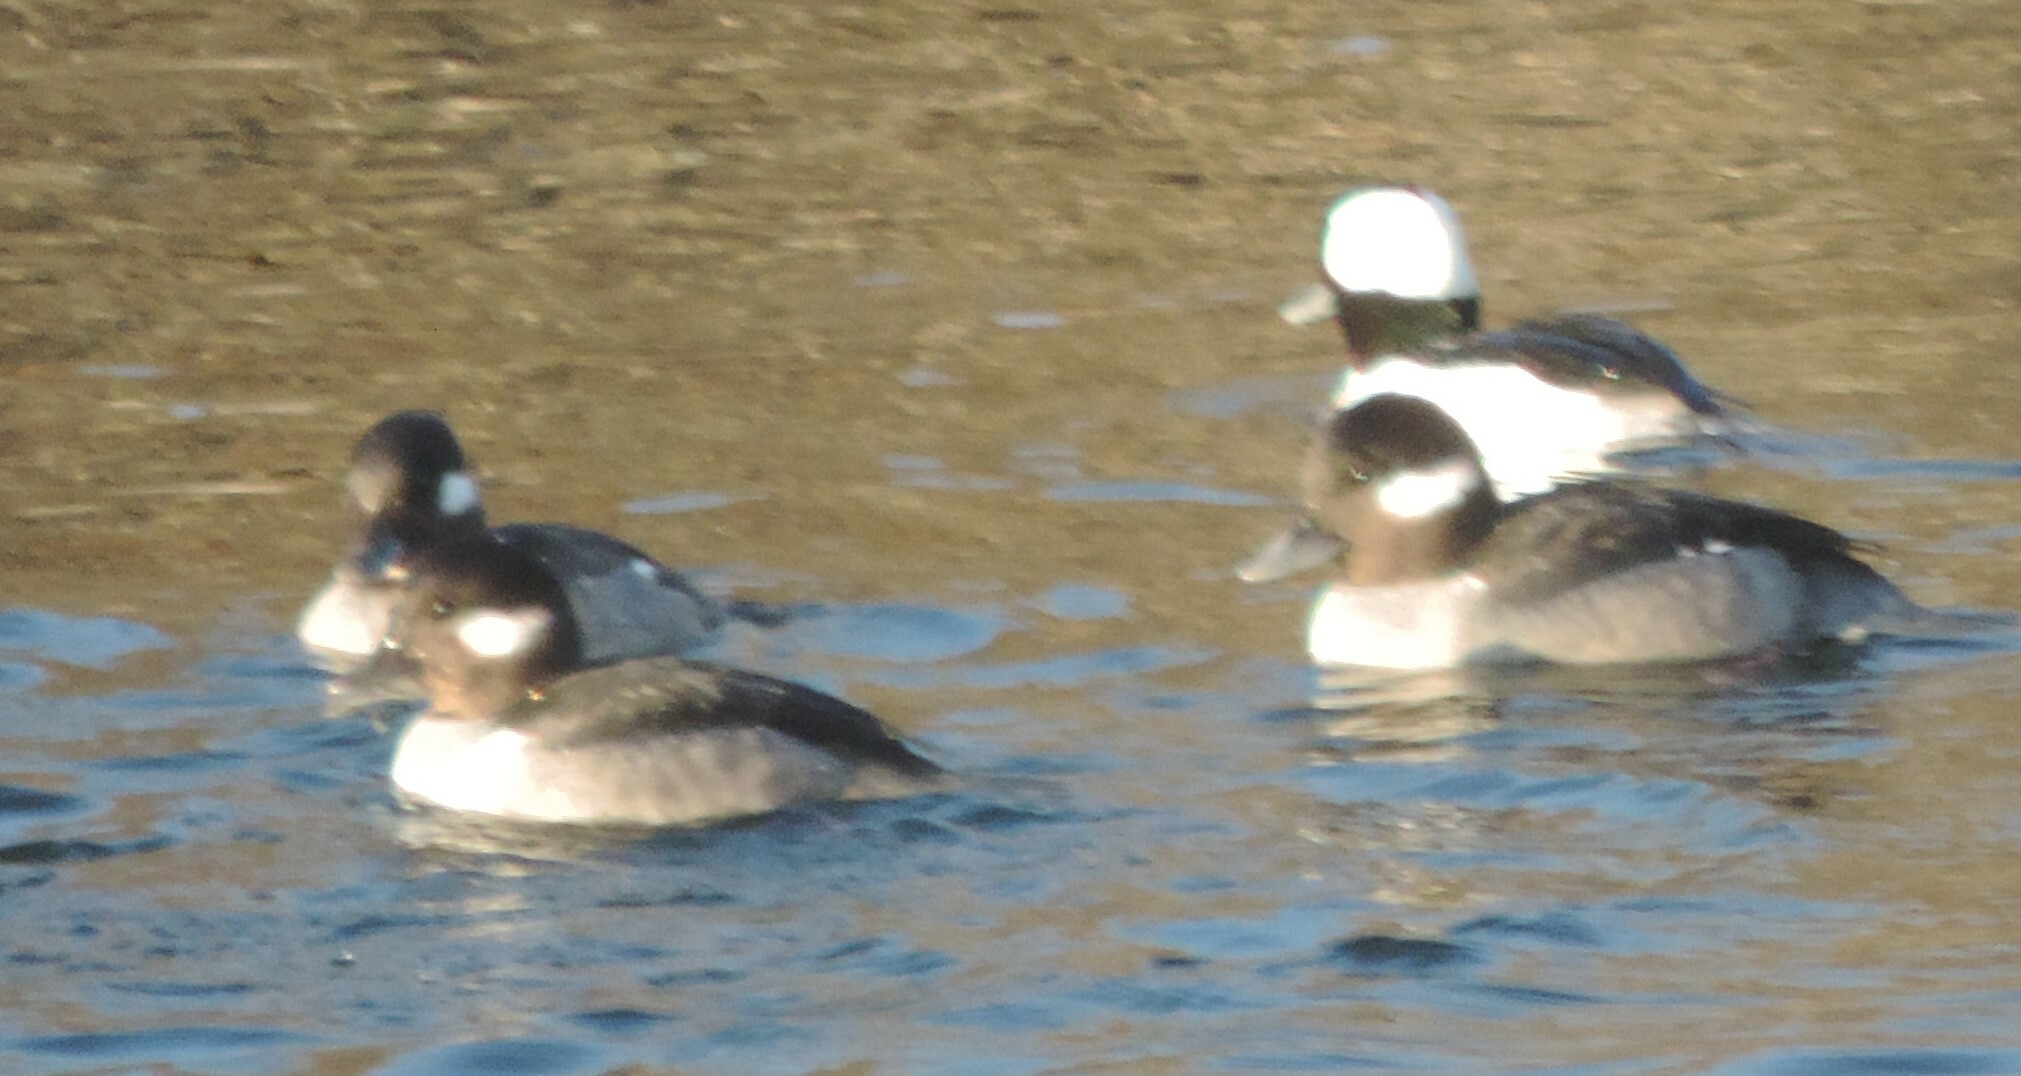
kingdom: Animalia
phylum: Chordata
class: Aves
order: Anseriformes
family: Anatidae
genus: Bucephala
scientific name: Bucephala albeola
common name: Bufflehead
